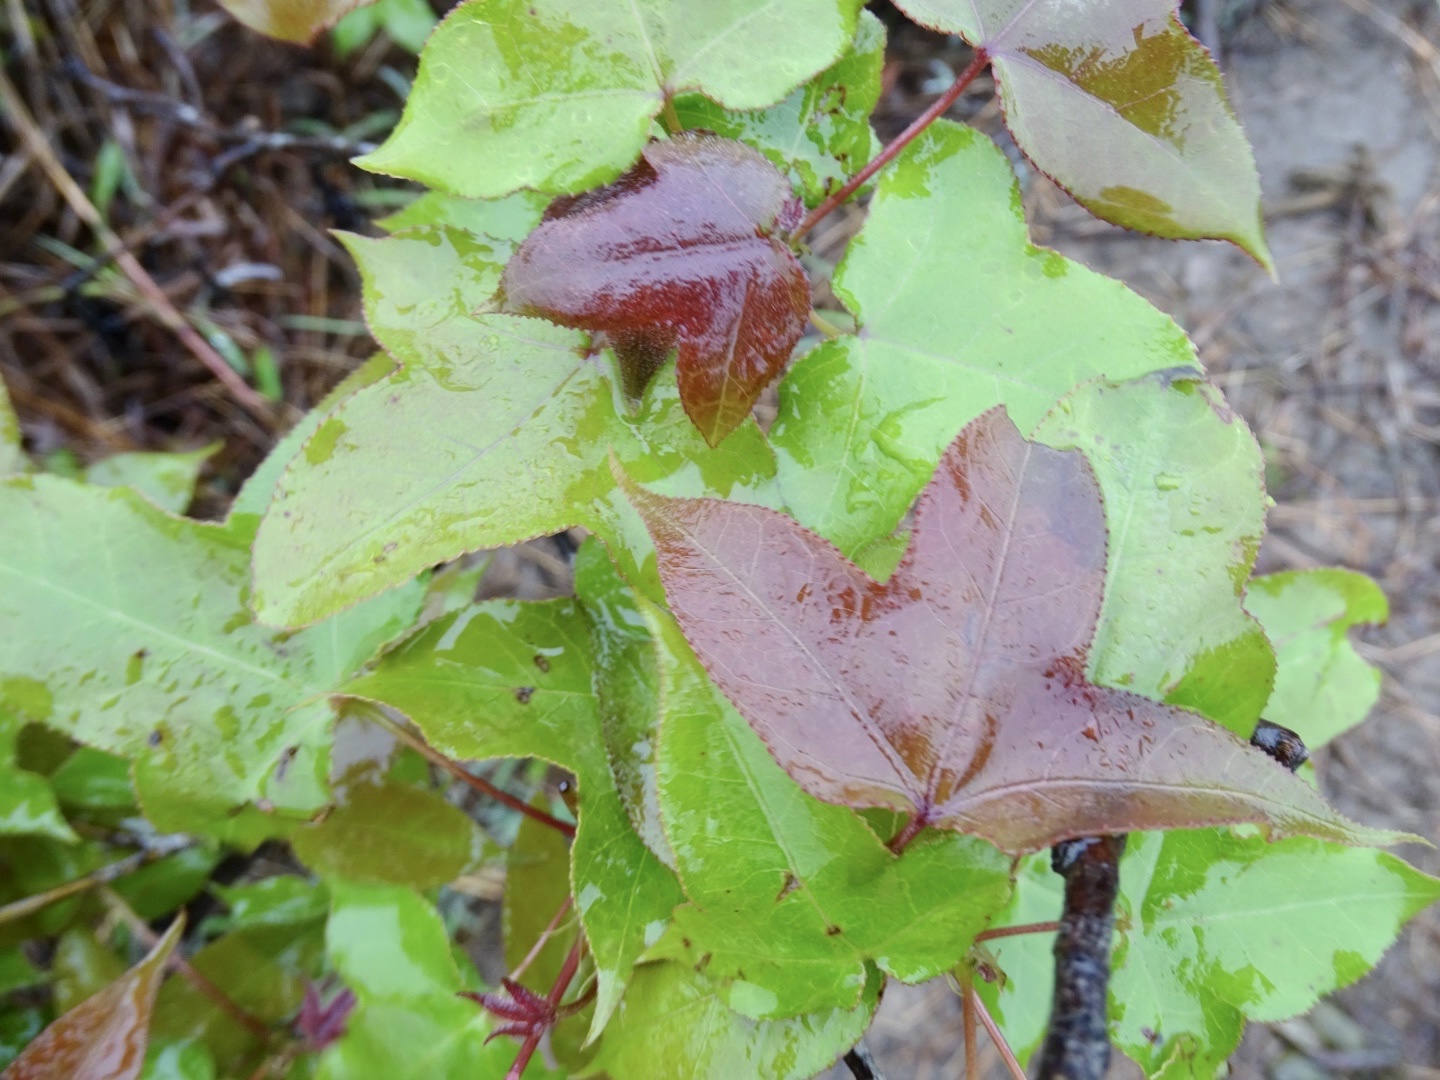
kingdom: Plantae
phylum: Tracheophyta
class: Magnoliopsida
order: Saxifragales
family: Altingiaceae
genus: Liquidambar
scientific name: Liquidambar formosana
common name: Chinese sweet gum
